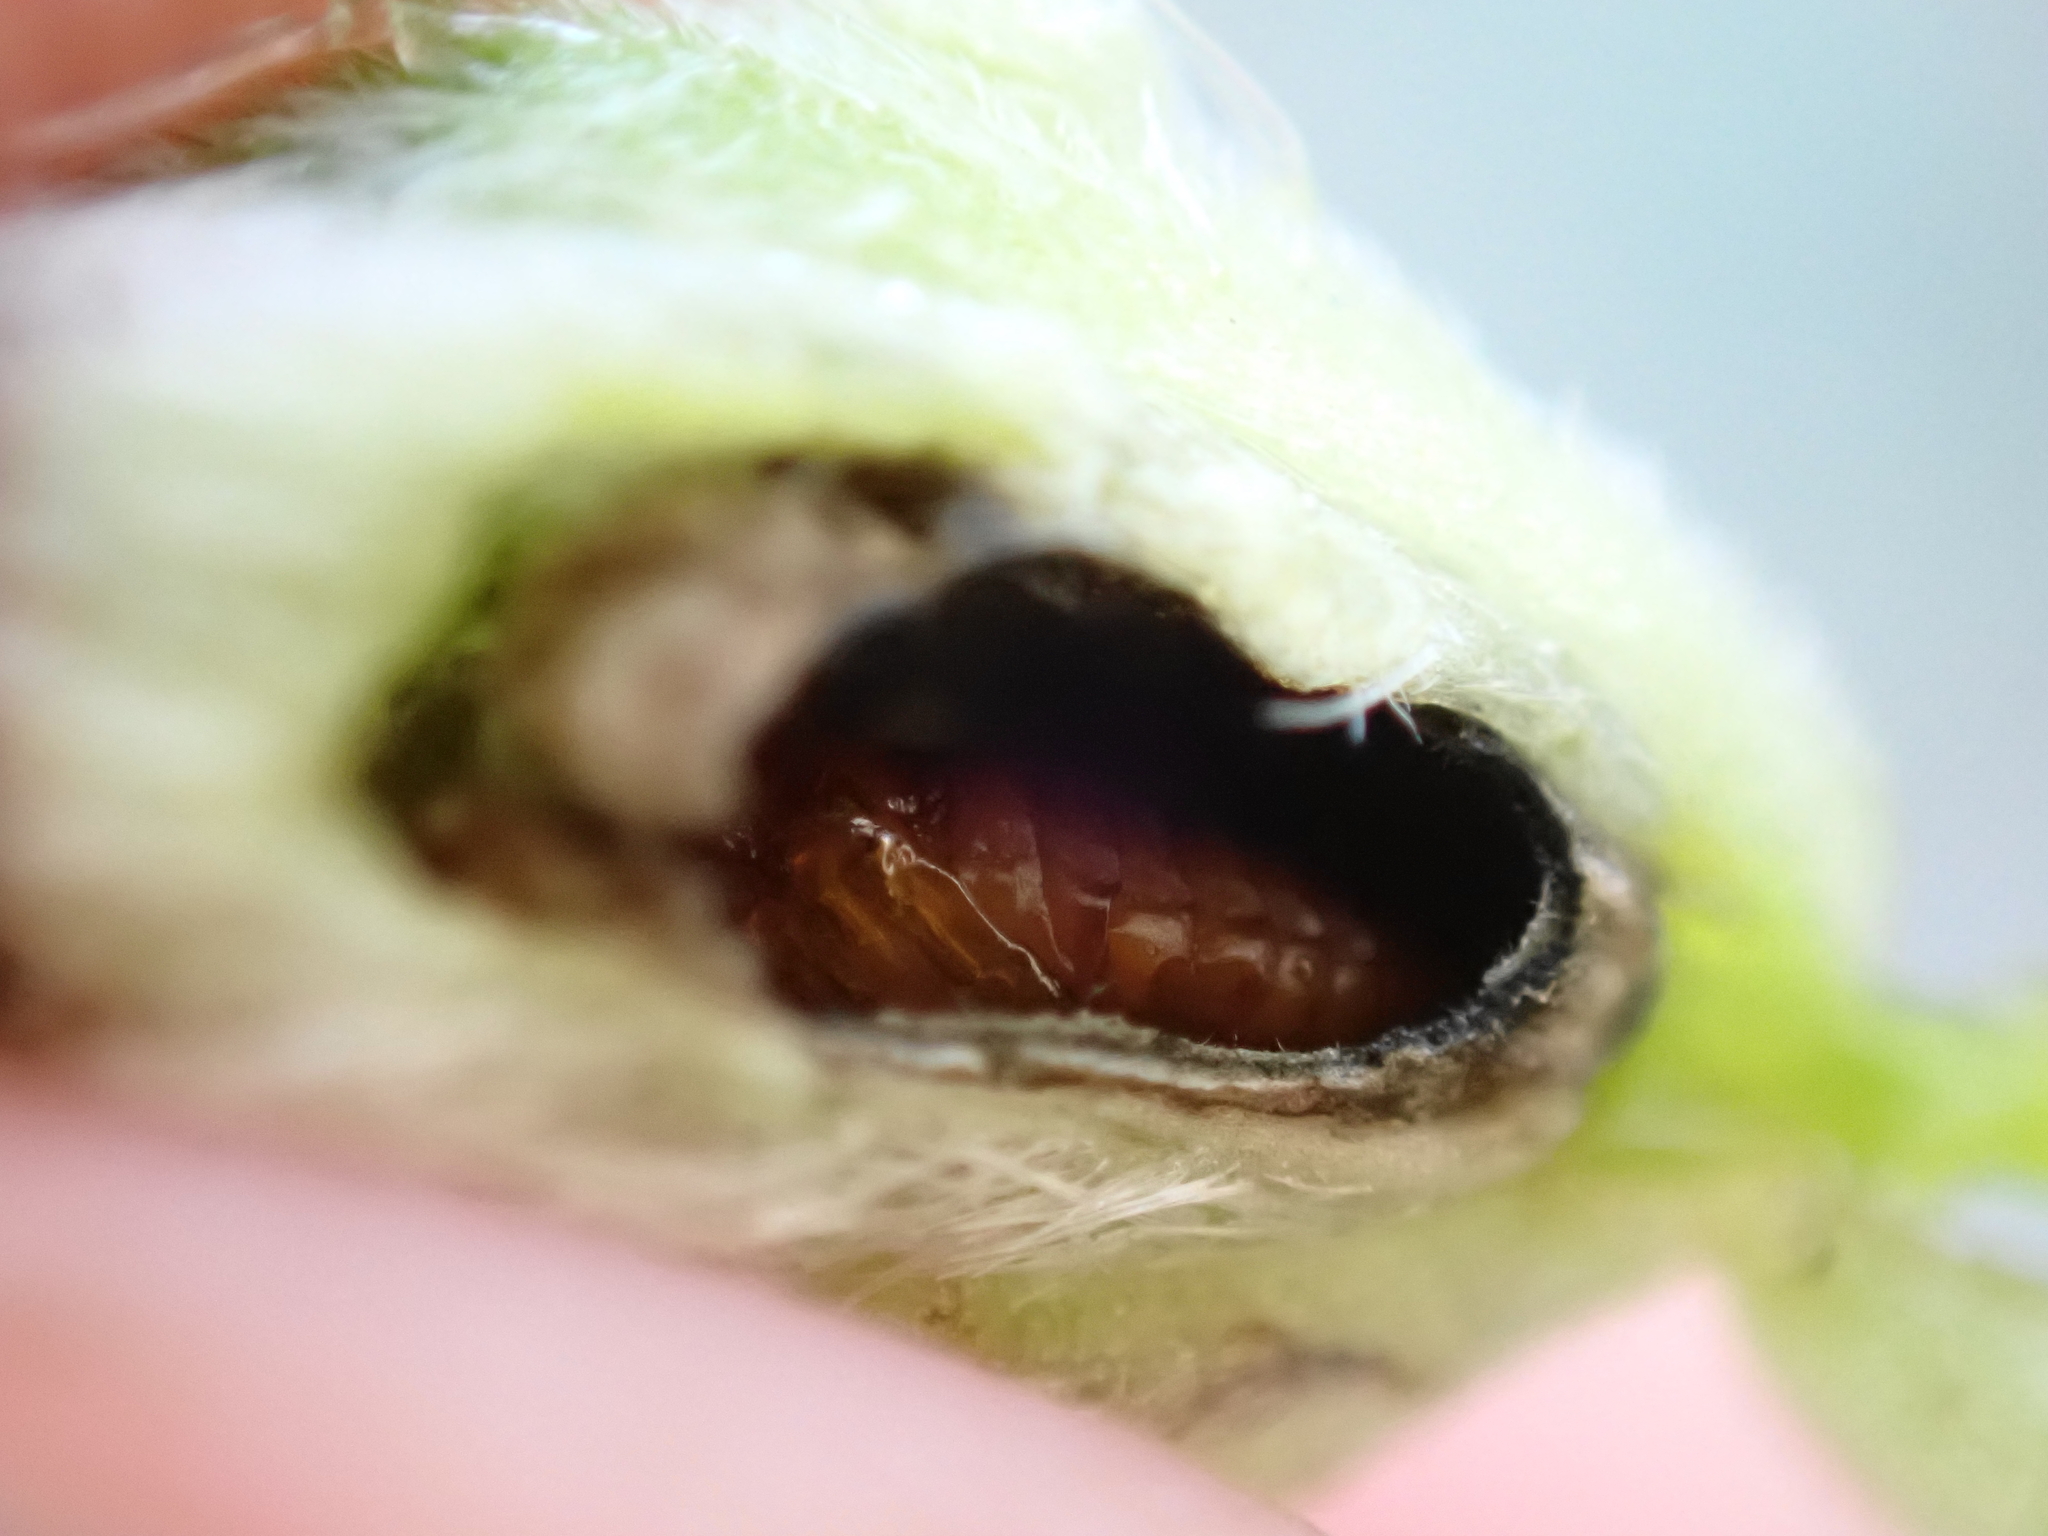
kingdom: Animalia
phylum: Arthropoda
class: Insecta
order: Diptera
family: Cecidomyiidae
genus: Asphondylia
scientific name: Asphondylia echii
